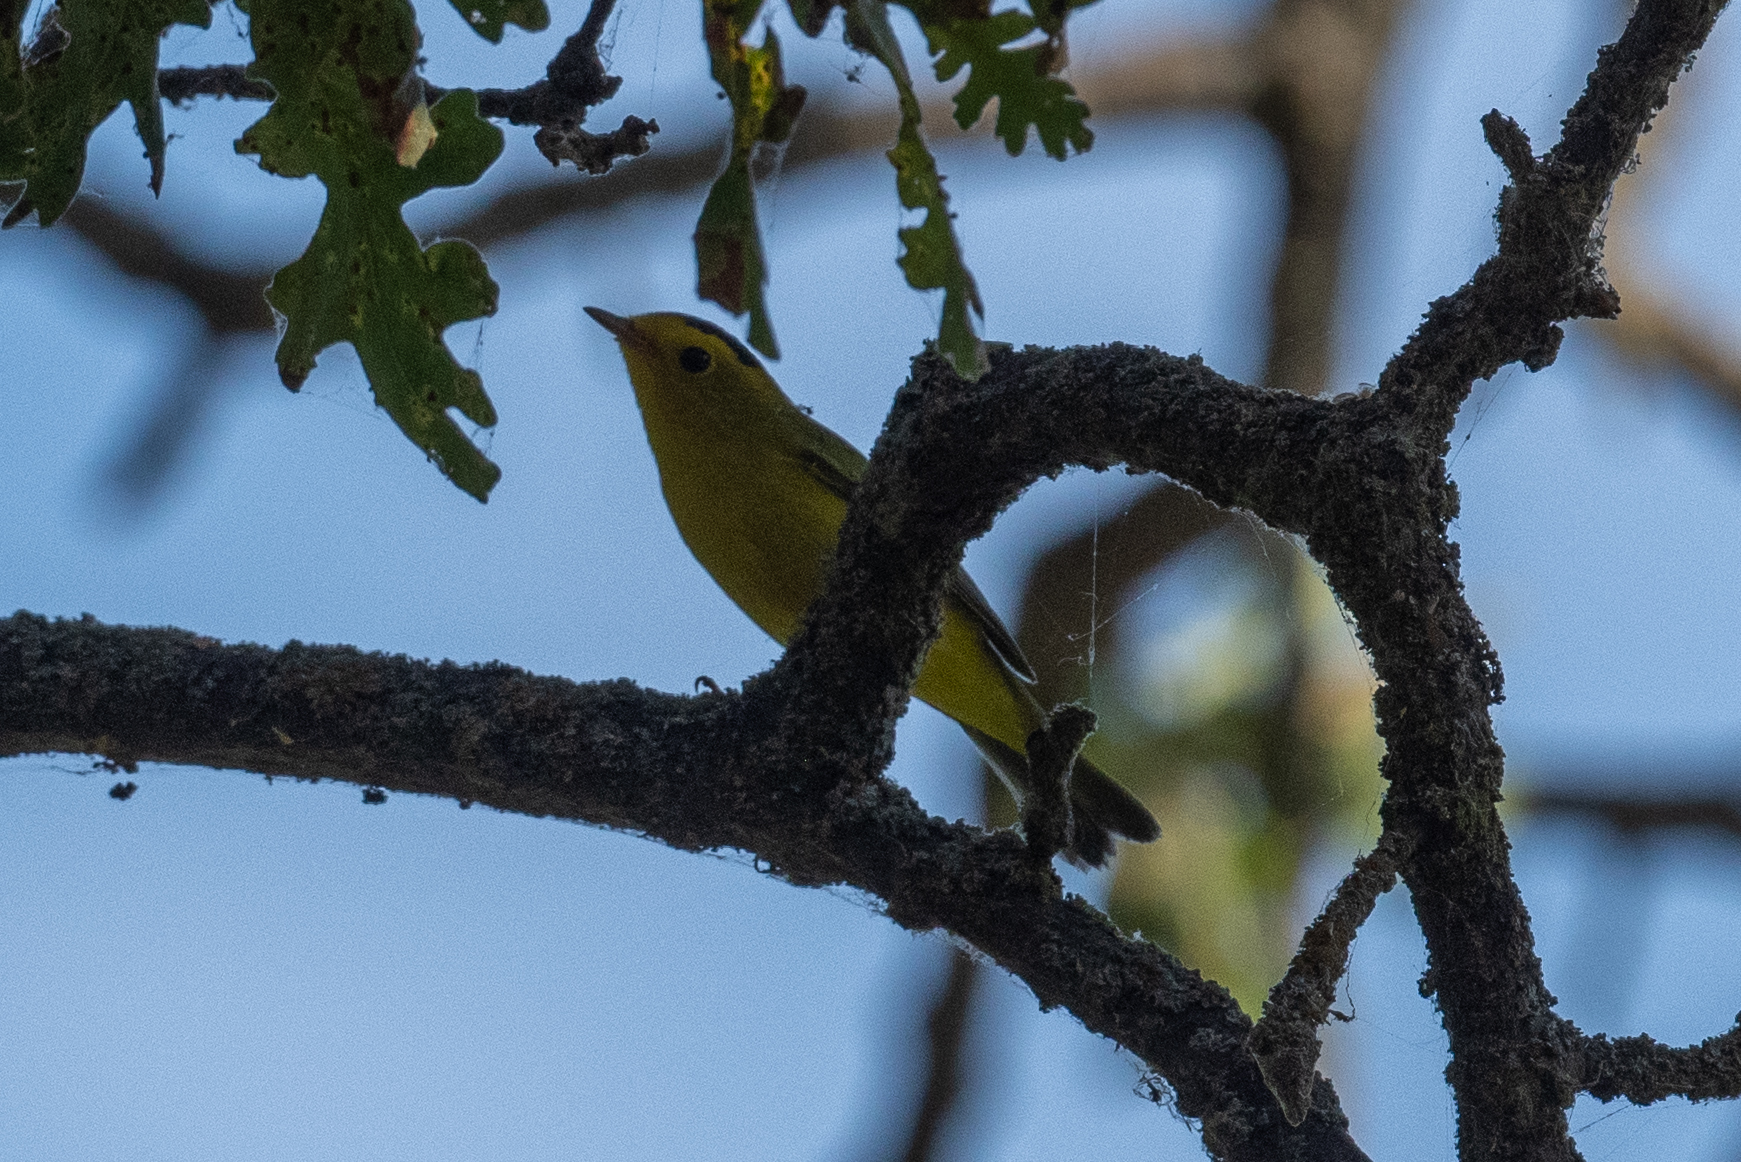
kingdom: Animalia
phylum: Chordata
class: Aves
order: Passeriformes
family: Parulidae
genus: Cardellina
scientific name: Cardellina pusilla
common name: Wilson's warbler
